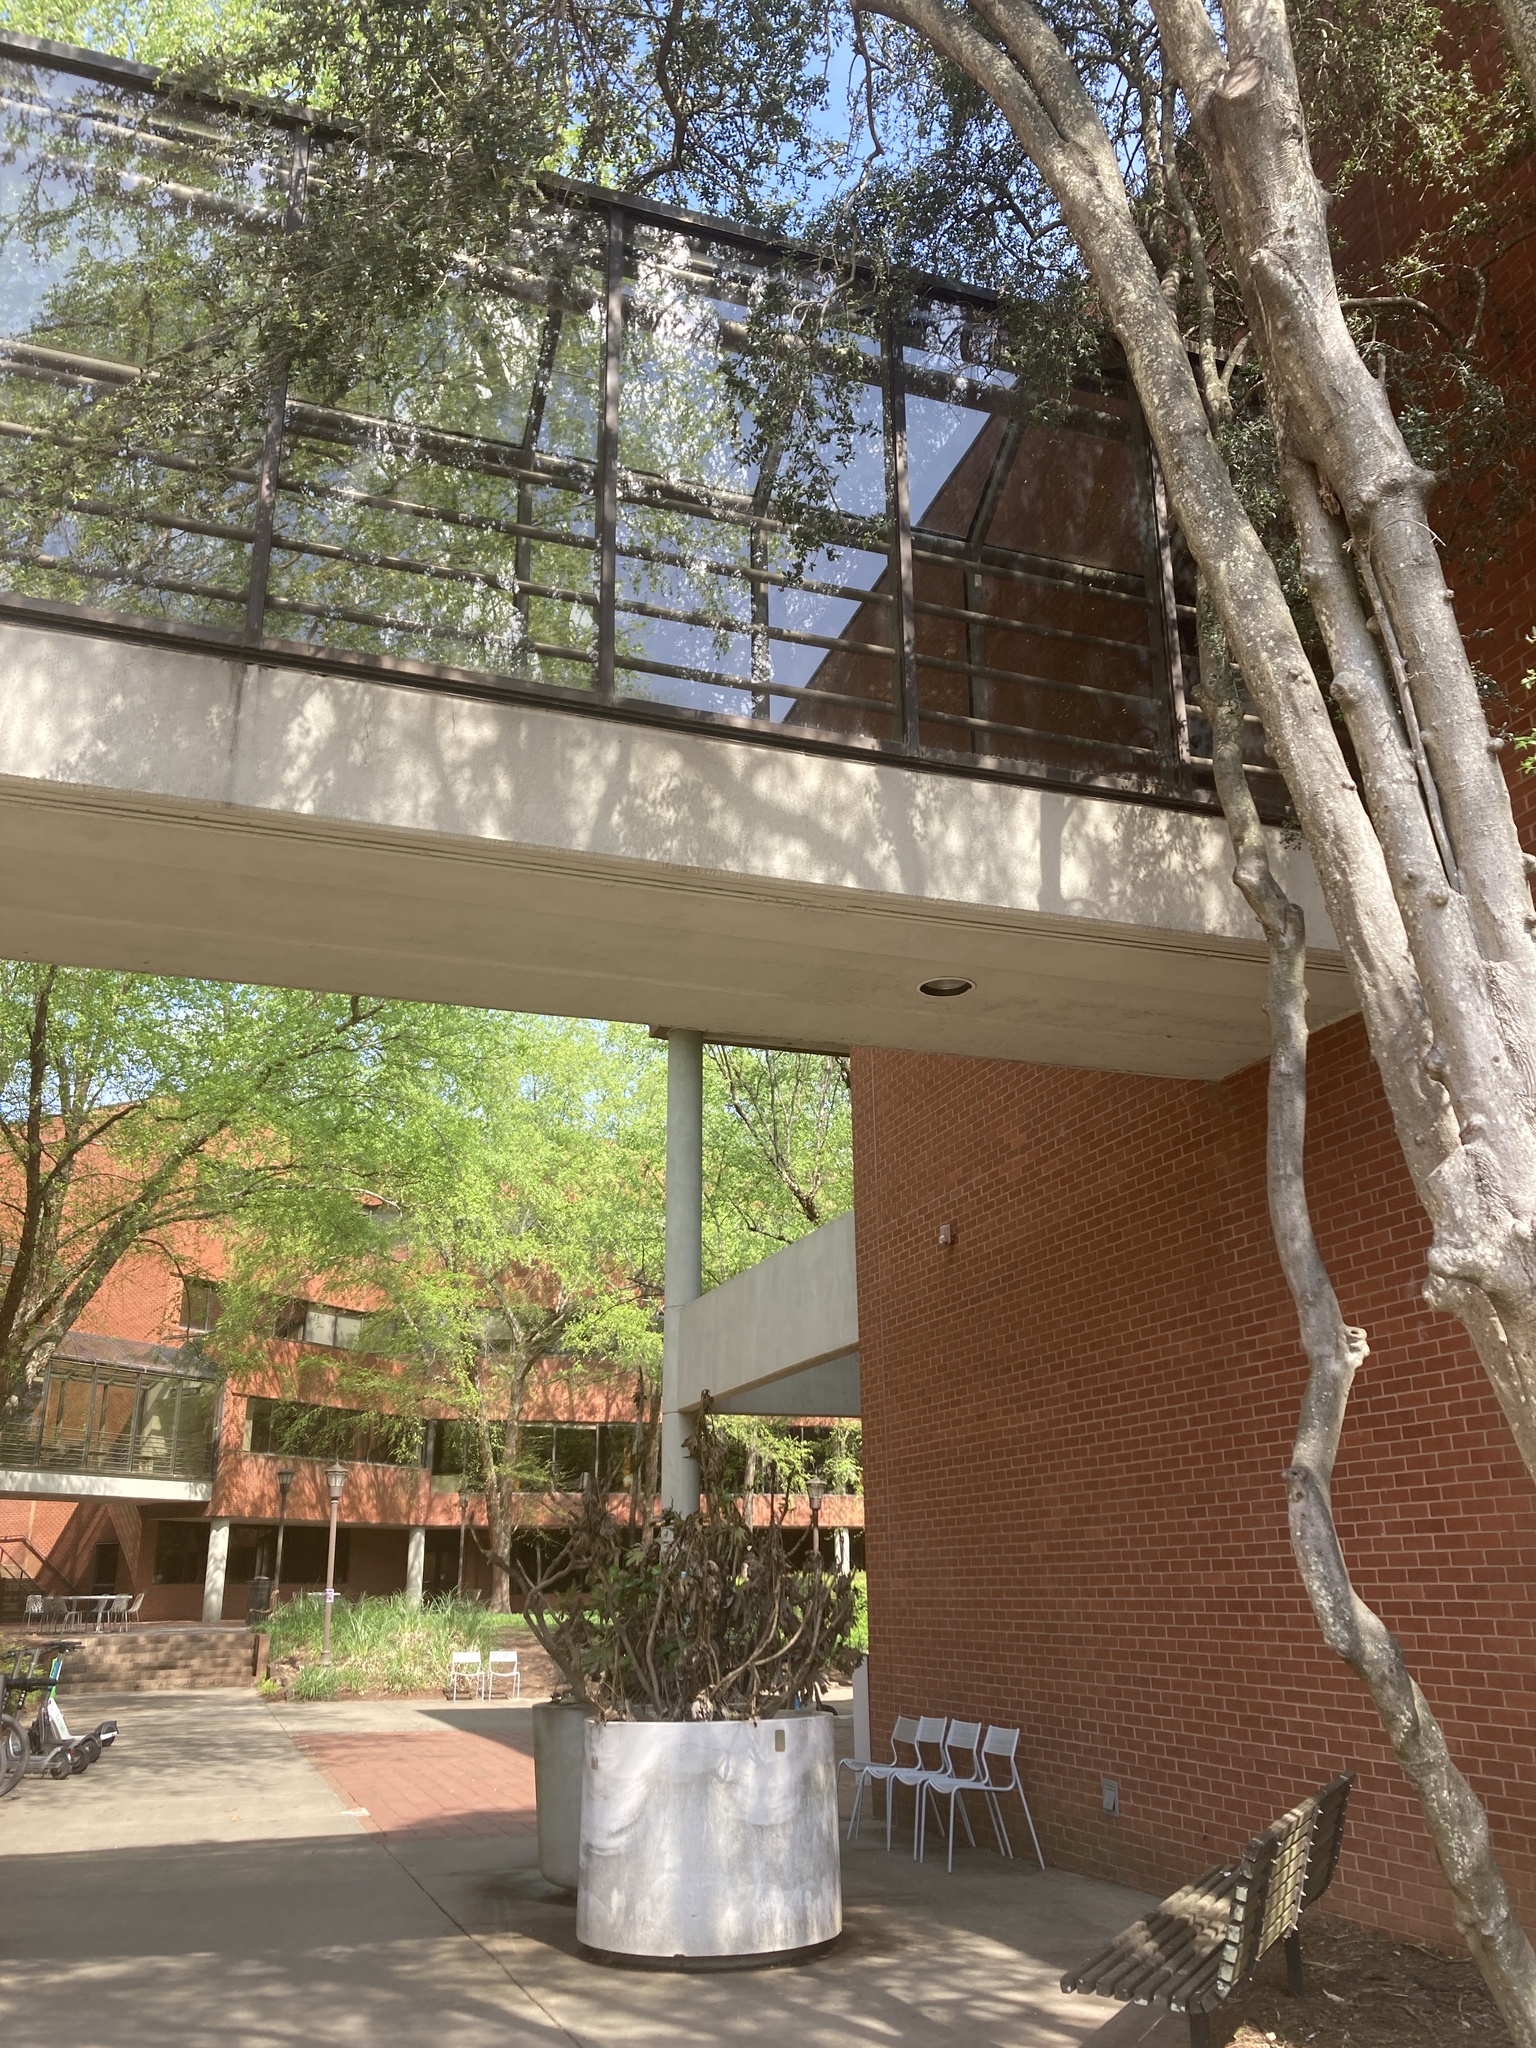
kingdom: Animalia
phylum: Chordata
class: Aves
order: Passeriformes
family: Bombycillidae
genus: Bombycilla
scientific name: Bombycilla cedrorum
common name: Cedar waxwing
